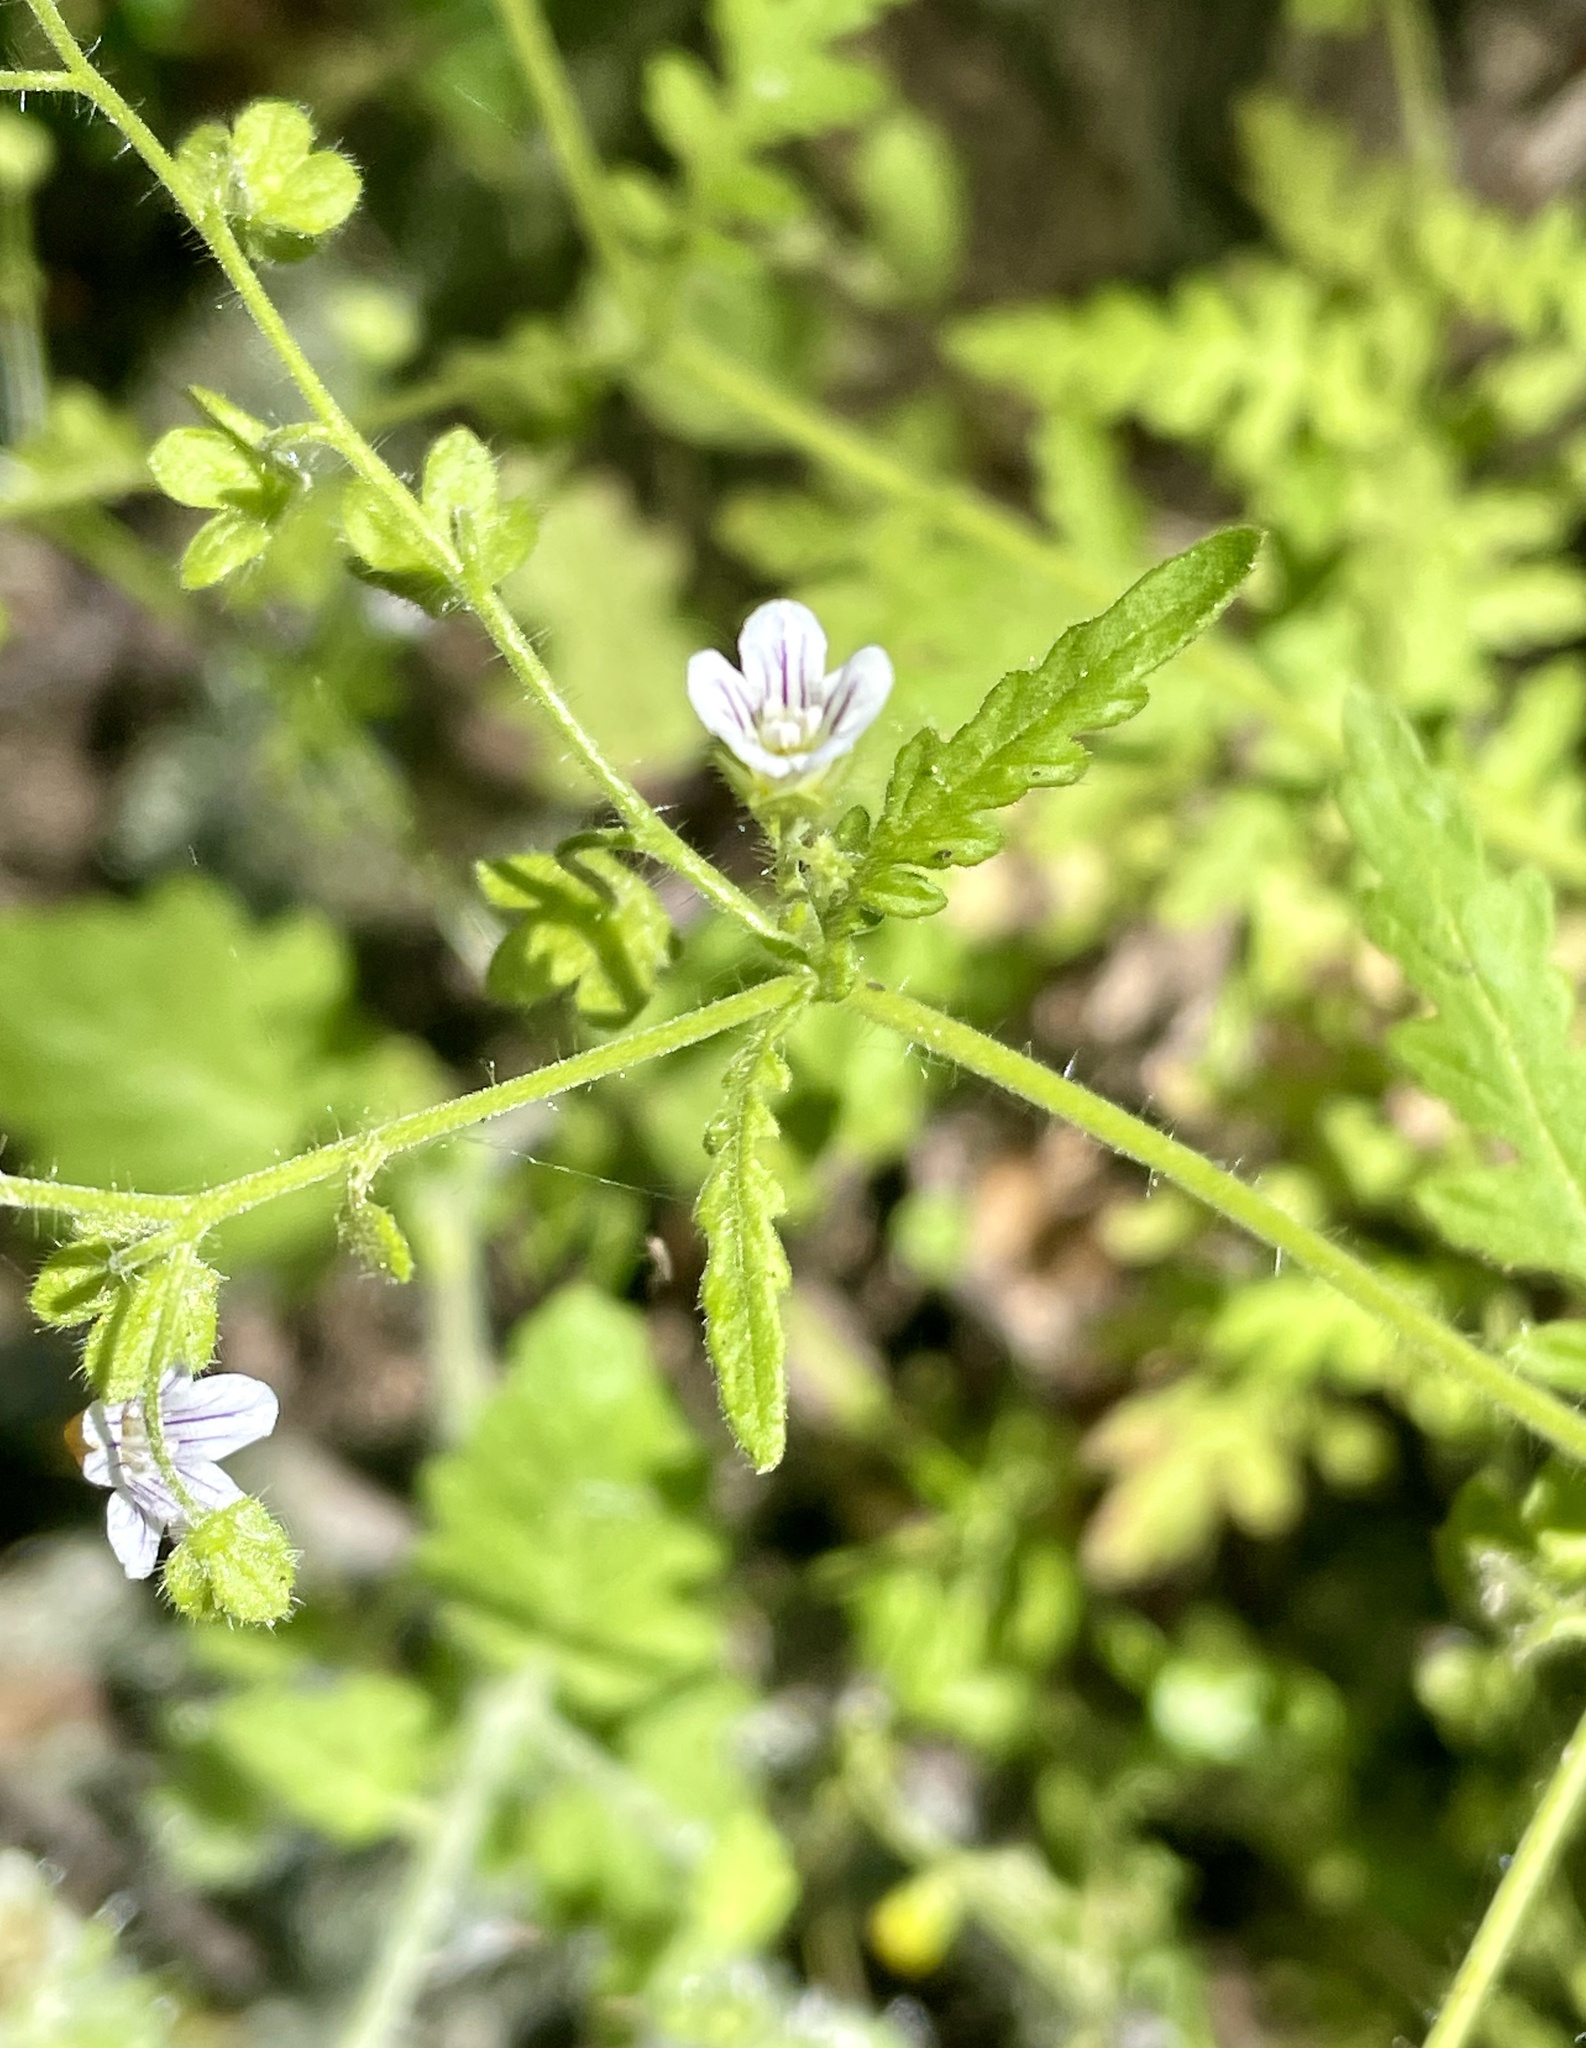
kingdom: Plantae
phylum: Tracheophyta
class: Magnoliopsida
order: Boraginales
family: Hydrophyllaceae
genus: Eucrypta
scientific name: Eucrypta chrysanthemifolia
